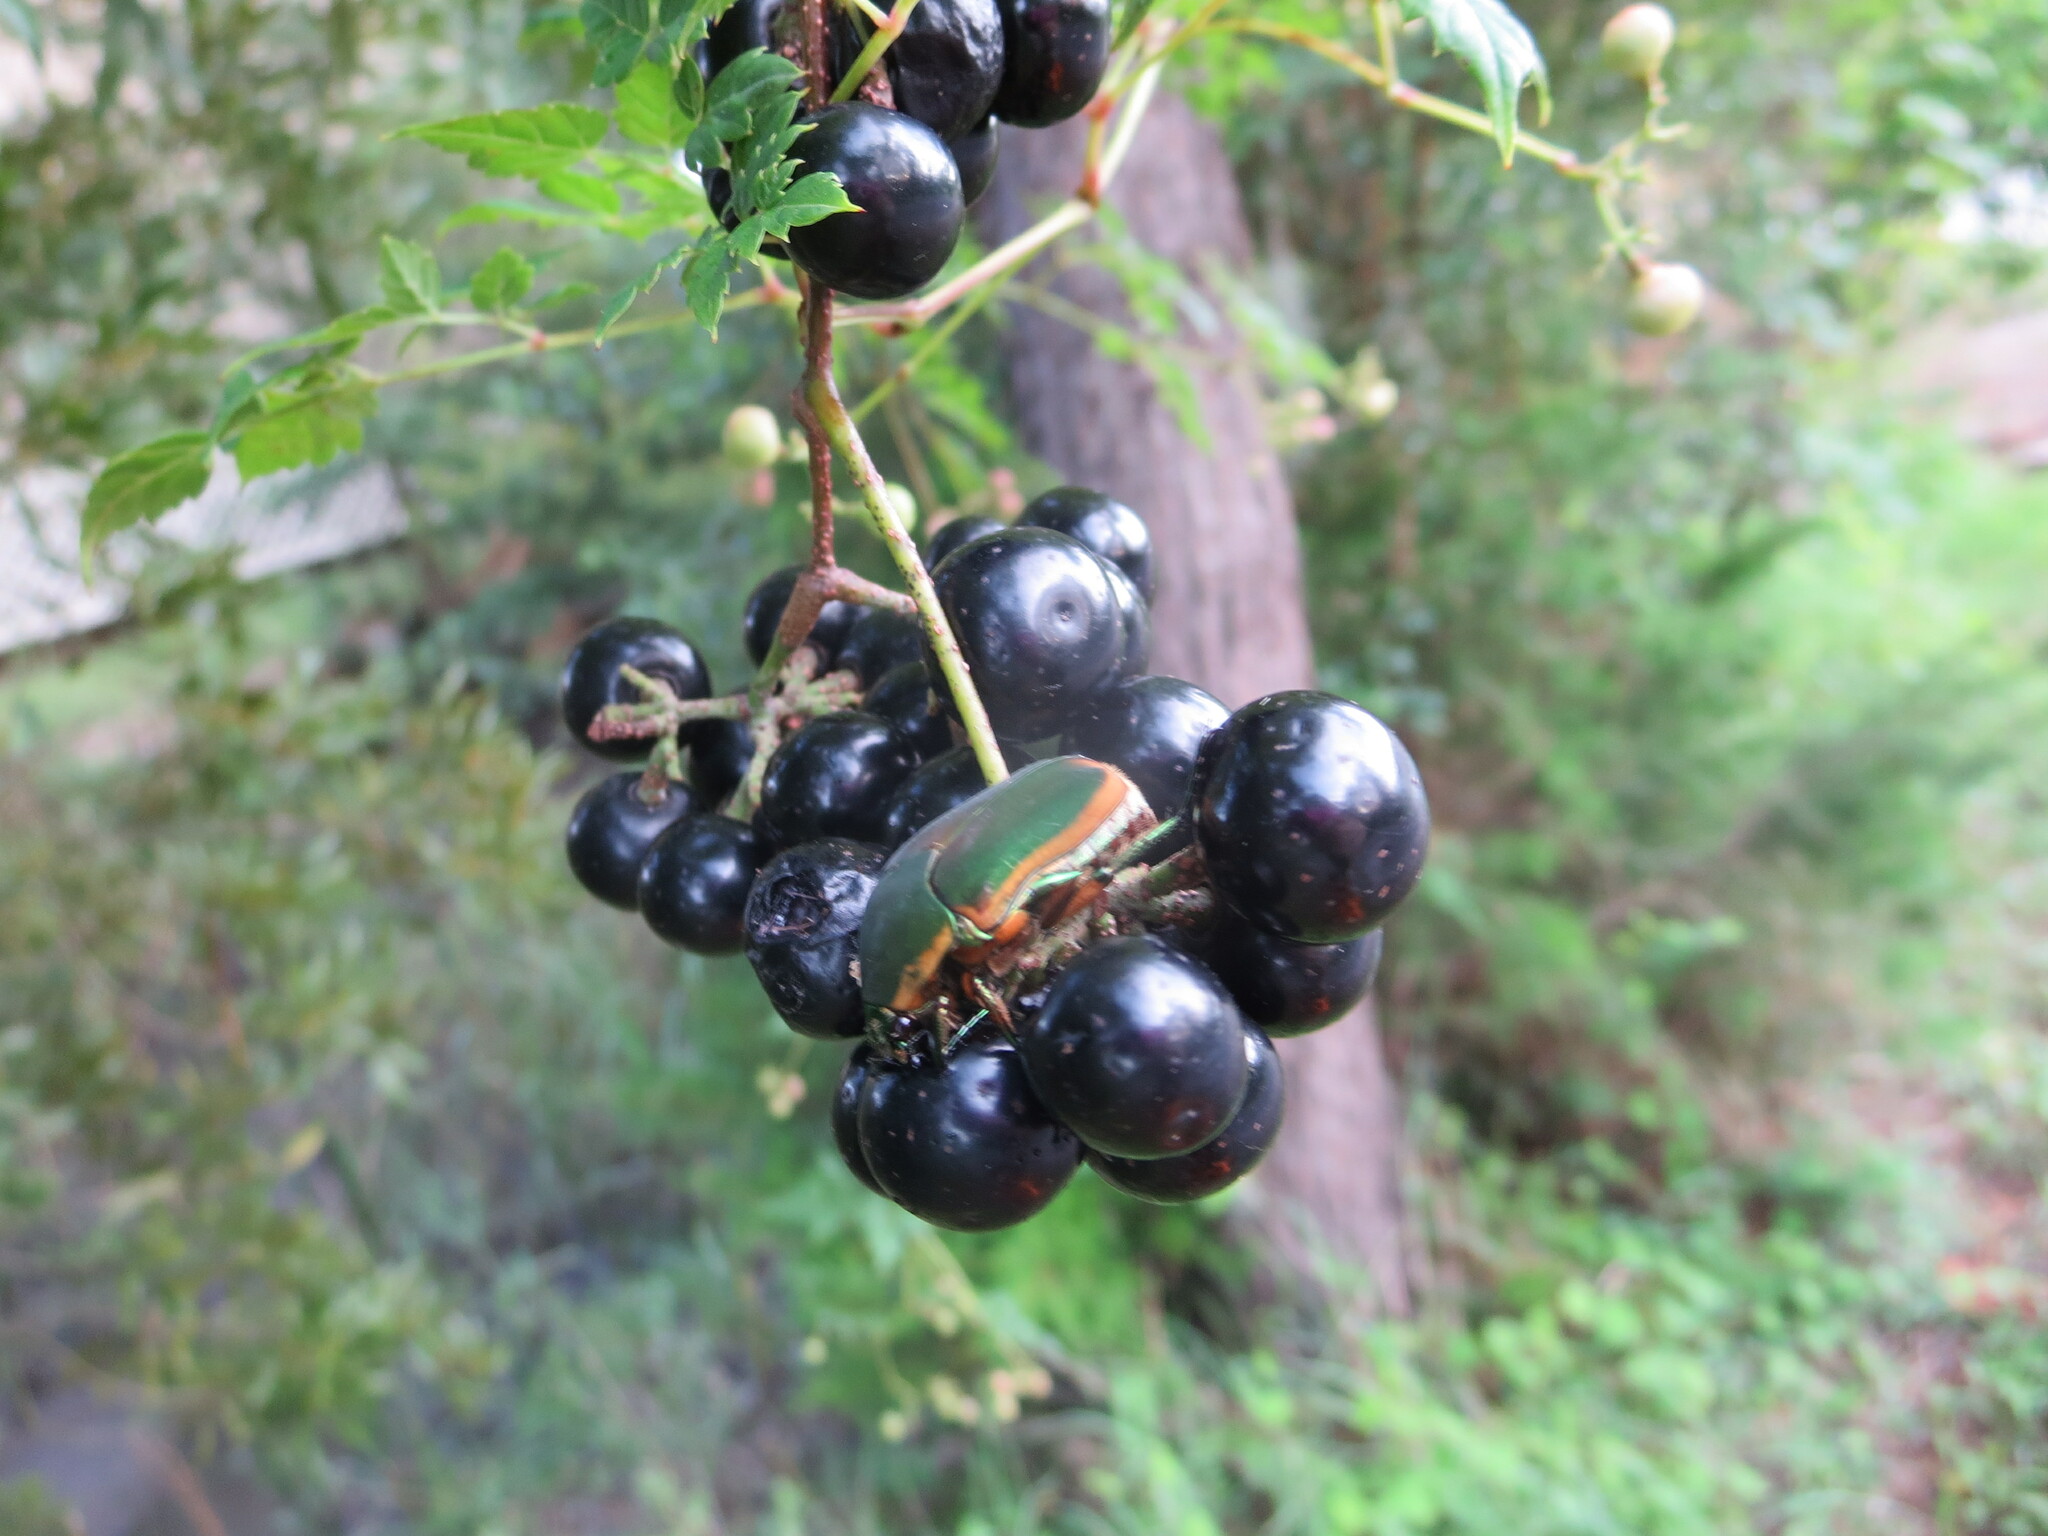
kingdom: Animalia
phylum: Arthropoda
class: Insecta
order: Coleoptera
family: Scarabaeidae
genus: Cotinis
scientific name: Cotinis nitida
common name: Common green june beetle
